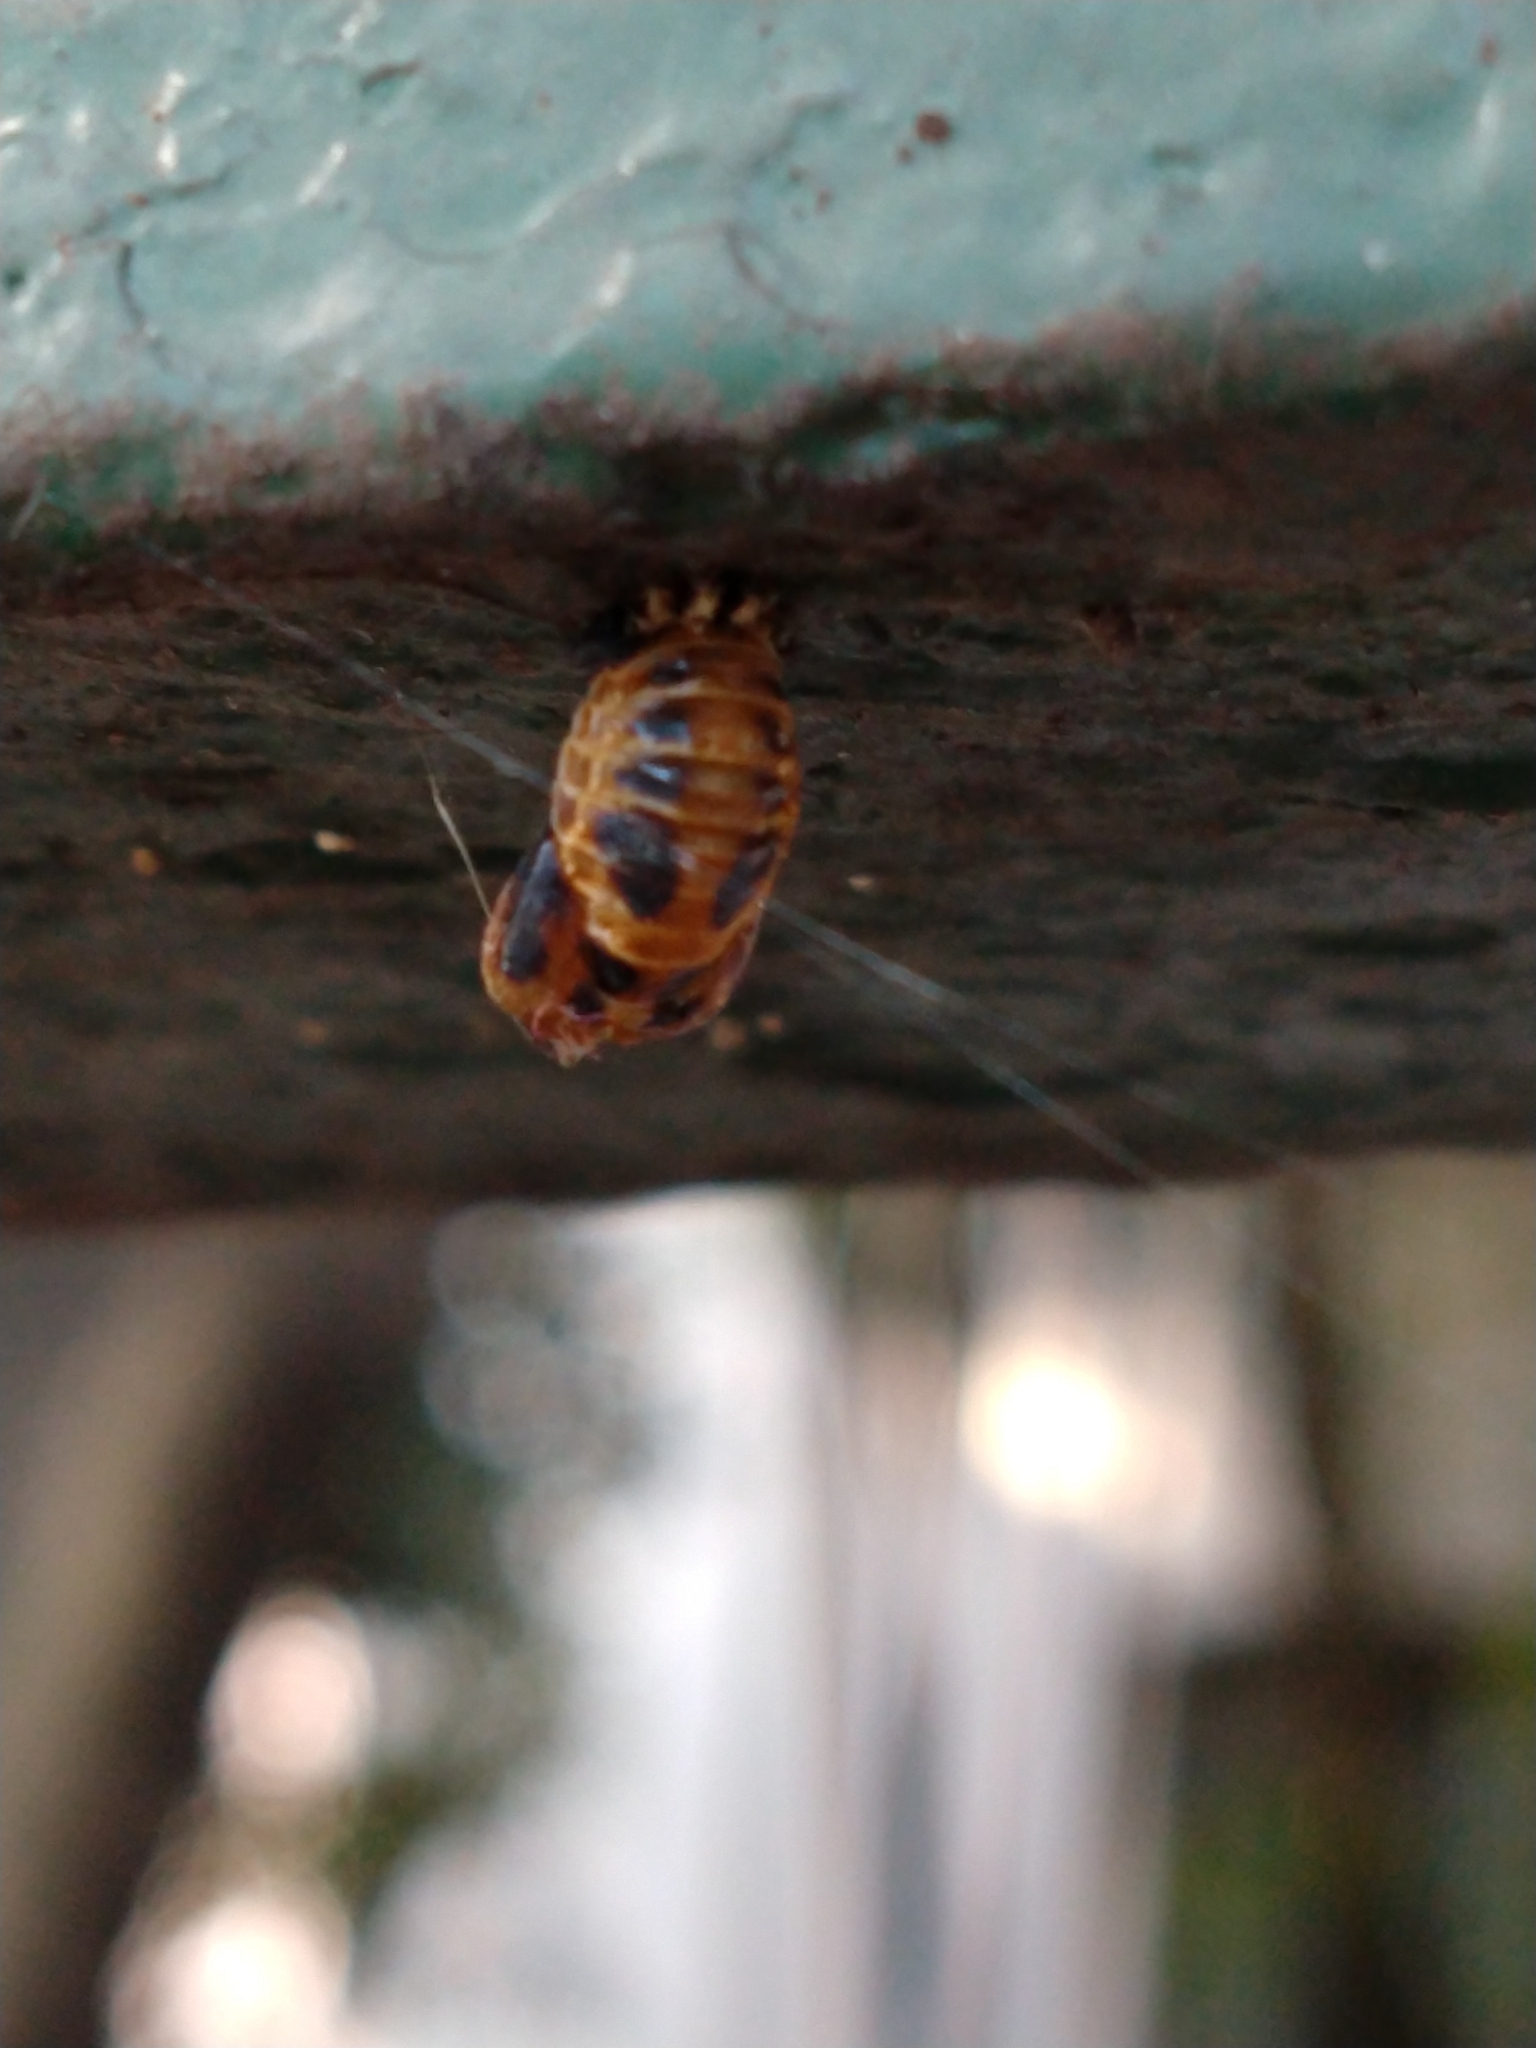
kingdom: Animalia
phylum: Arthropoda
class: Insecta
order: Coleoptera
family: Coccinellidae
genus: Harmonia
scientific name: Harmonia axyridis
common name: Harlequin ladybird
